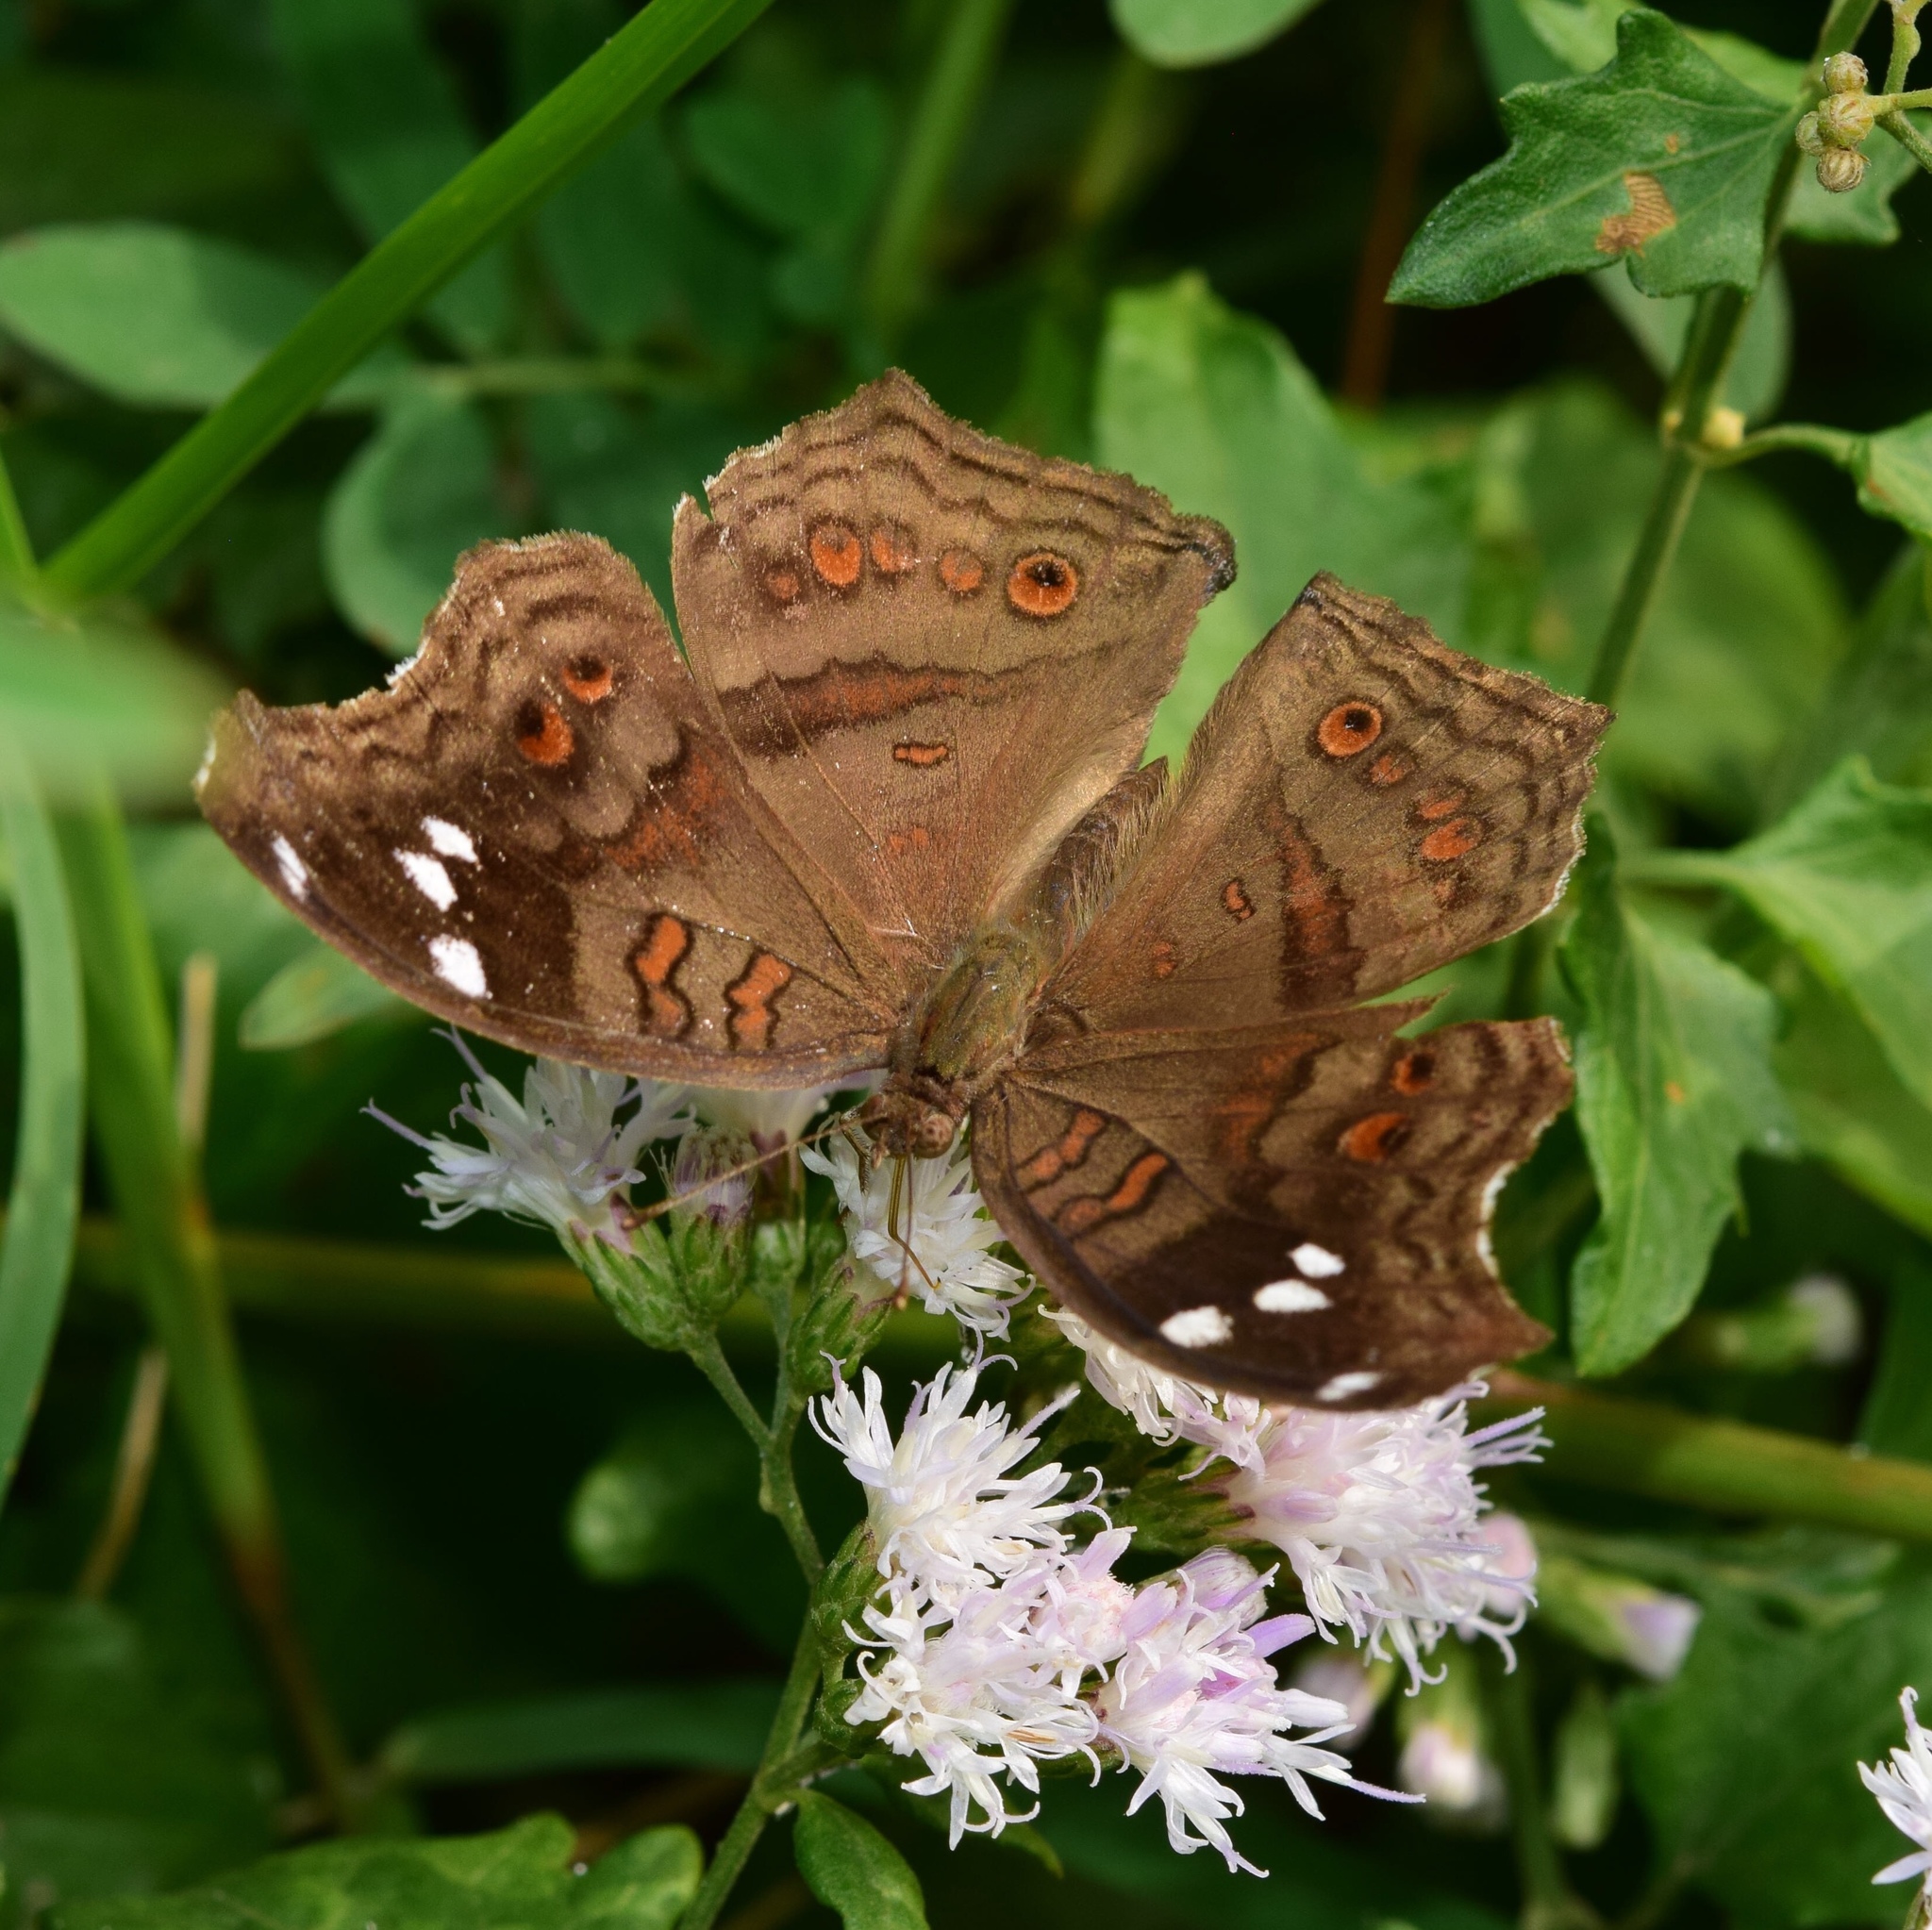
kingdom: Animalia
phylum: Arthropoda
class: Insecta
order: Lepidoptera
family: Nymphalidae
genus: Junonia
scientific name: Junonia natalica
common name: Brown pansy
